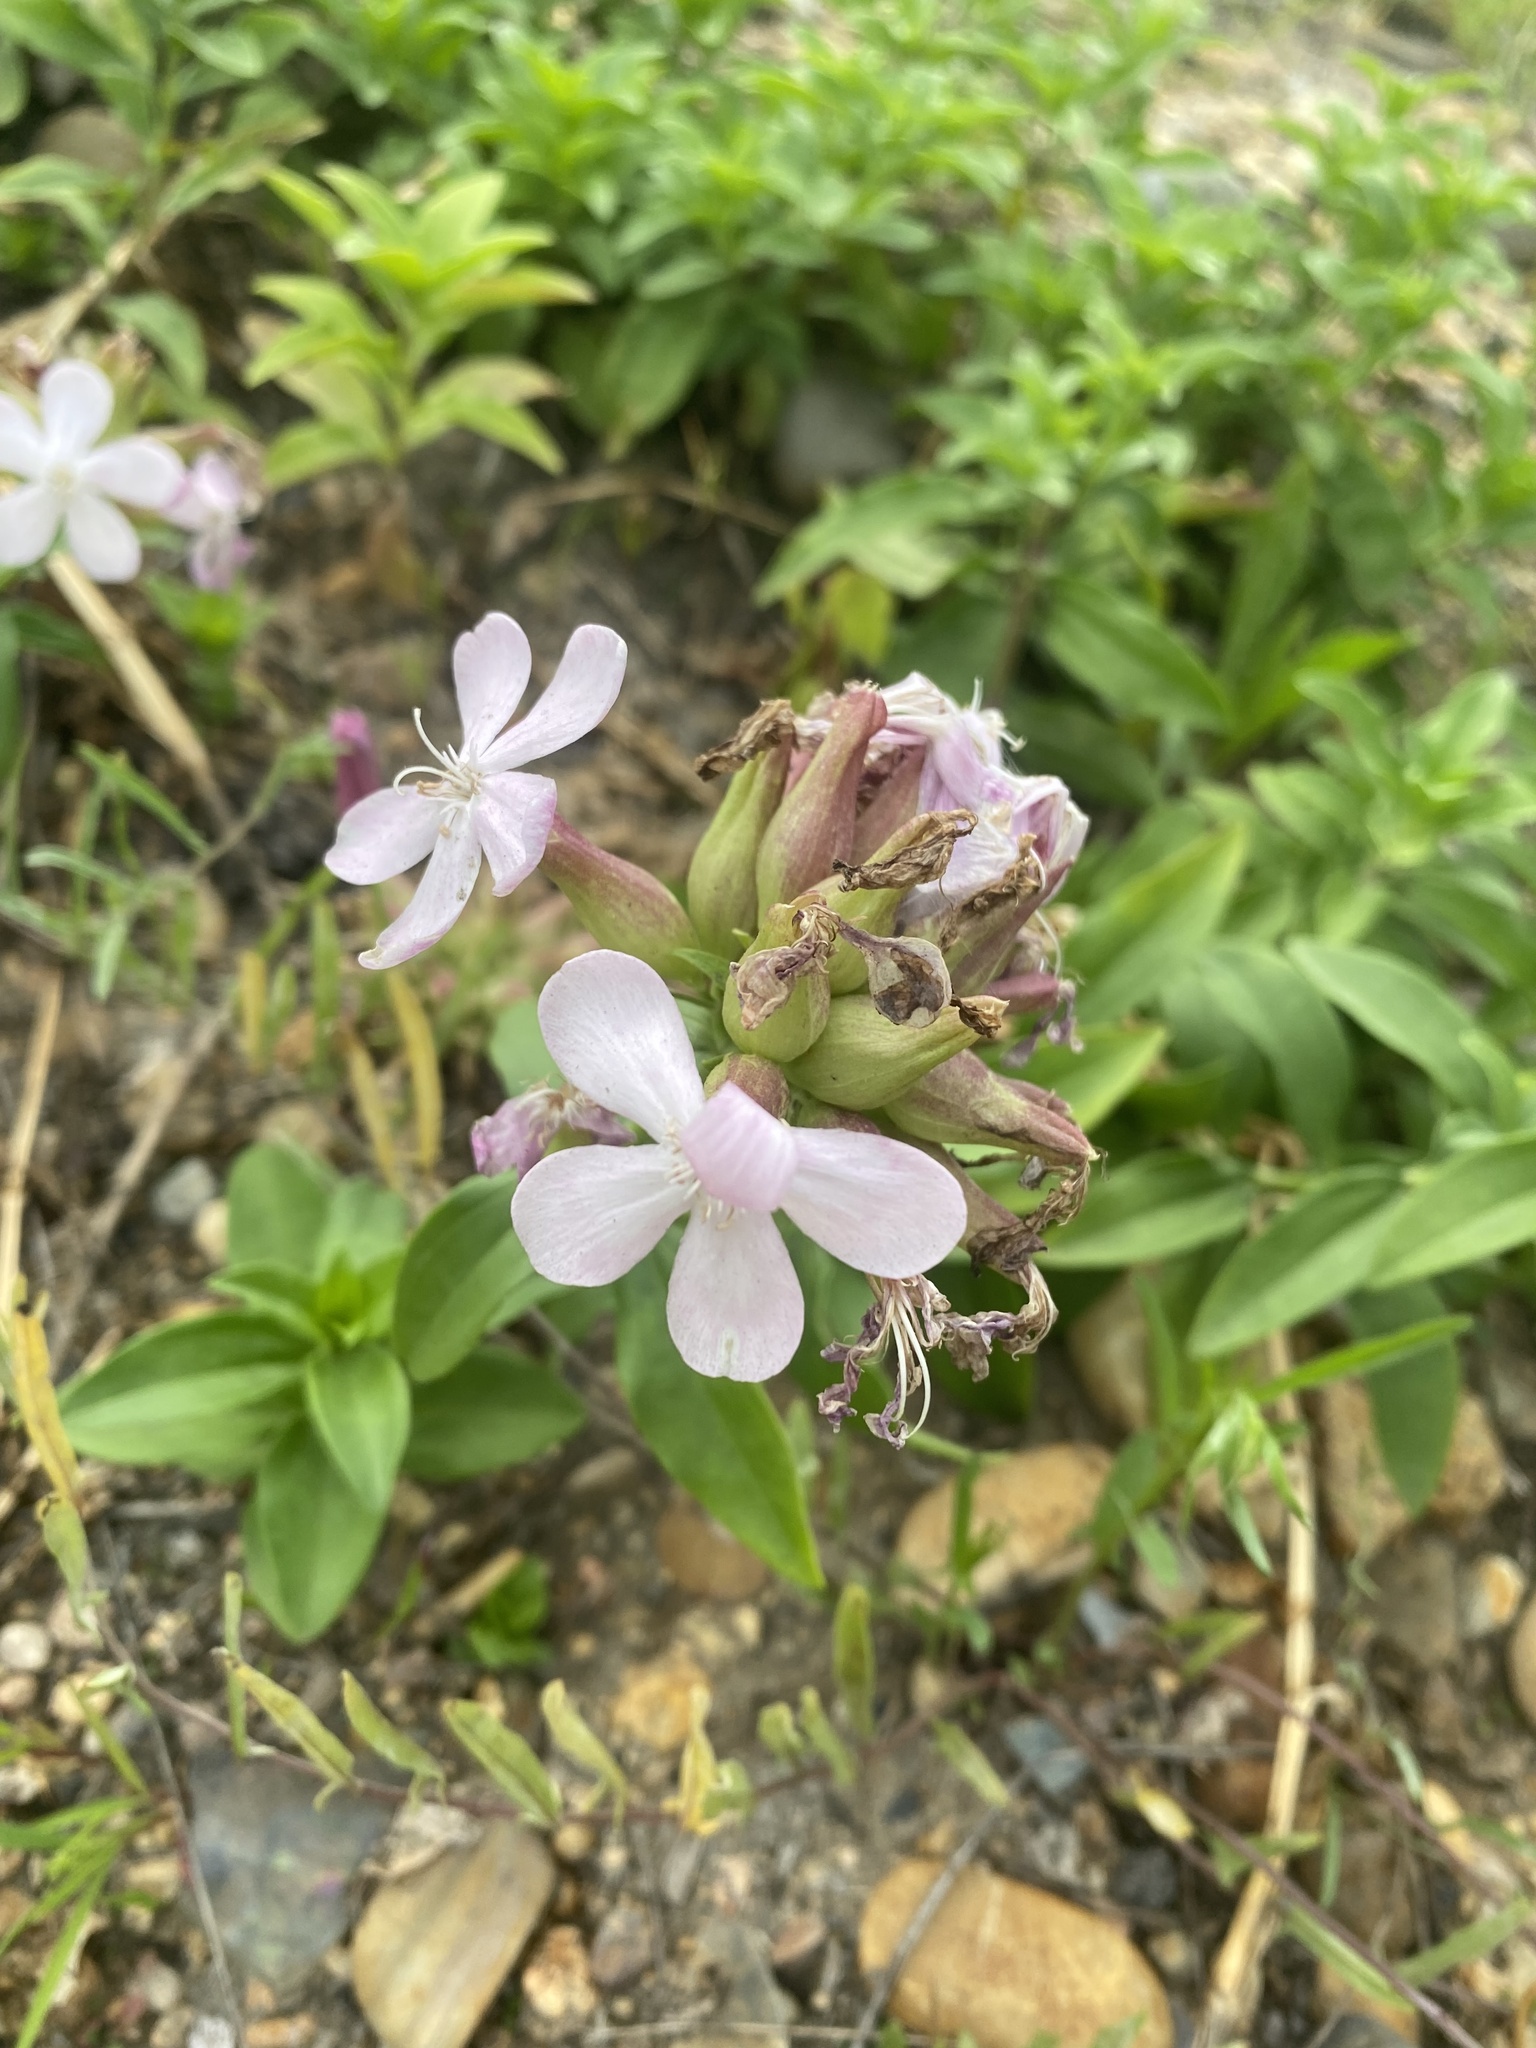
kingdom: Plantae
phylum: Tracheophyta
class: Magnoliopsida
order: Caryophyllales
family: Caryophyllaceae
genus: Saponaria
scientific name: Saponaria officinalis
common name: Soapwort
